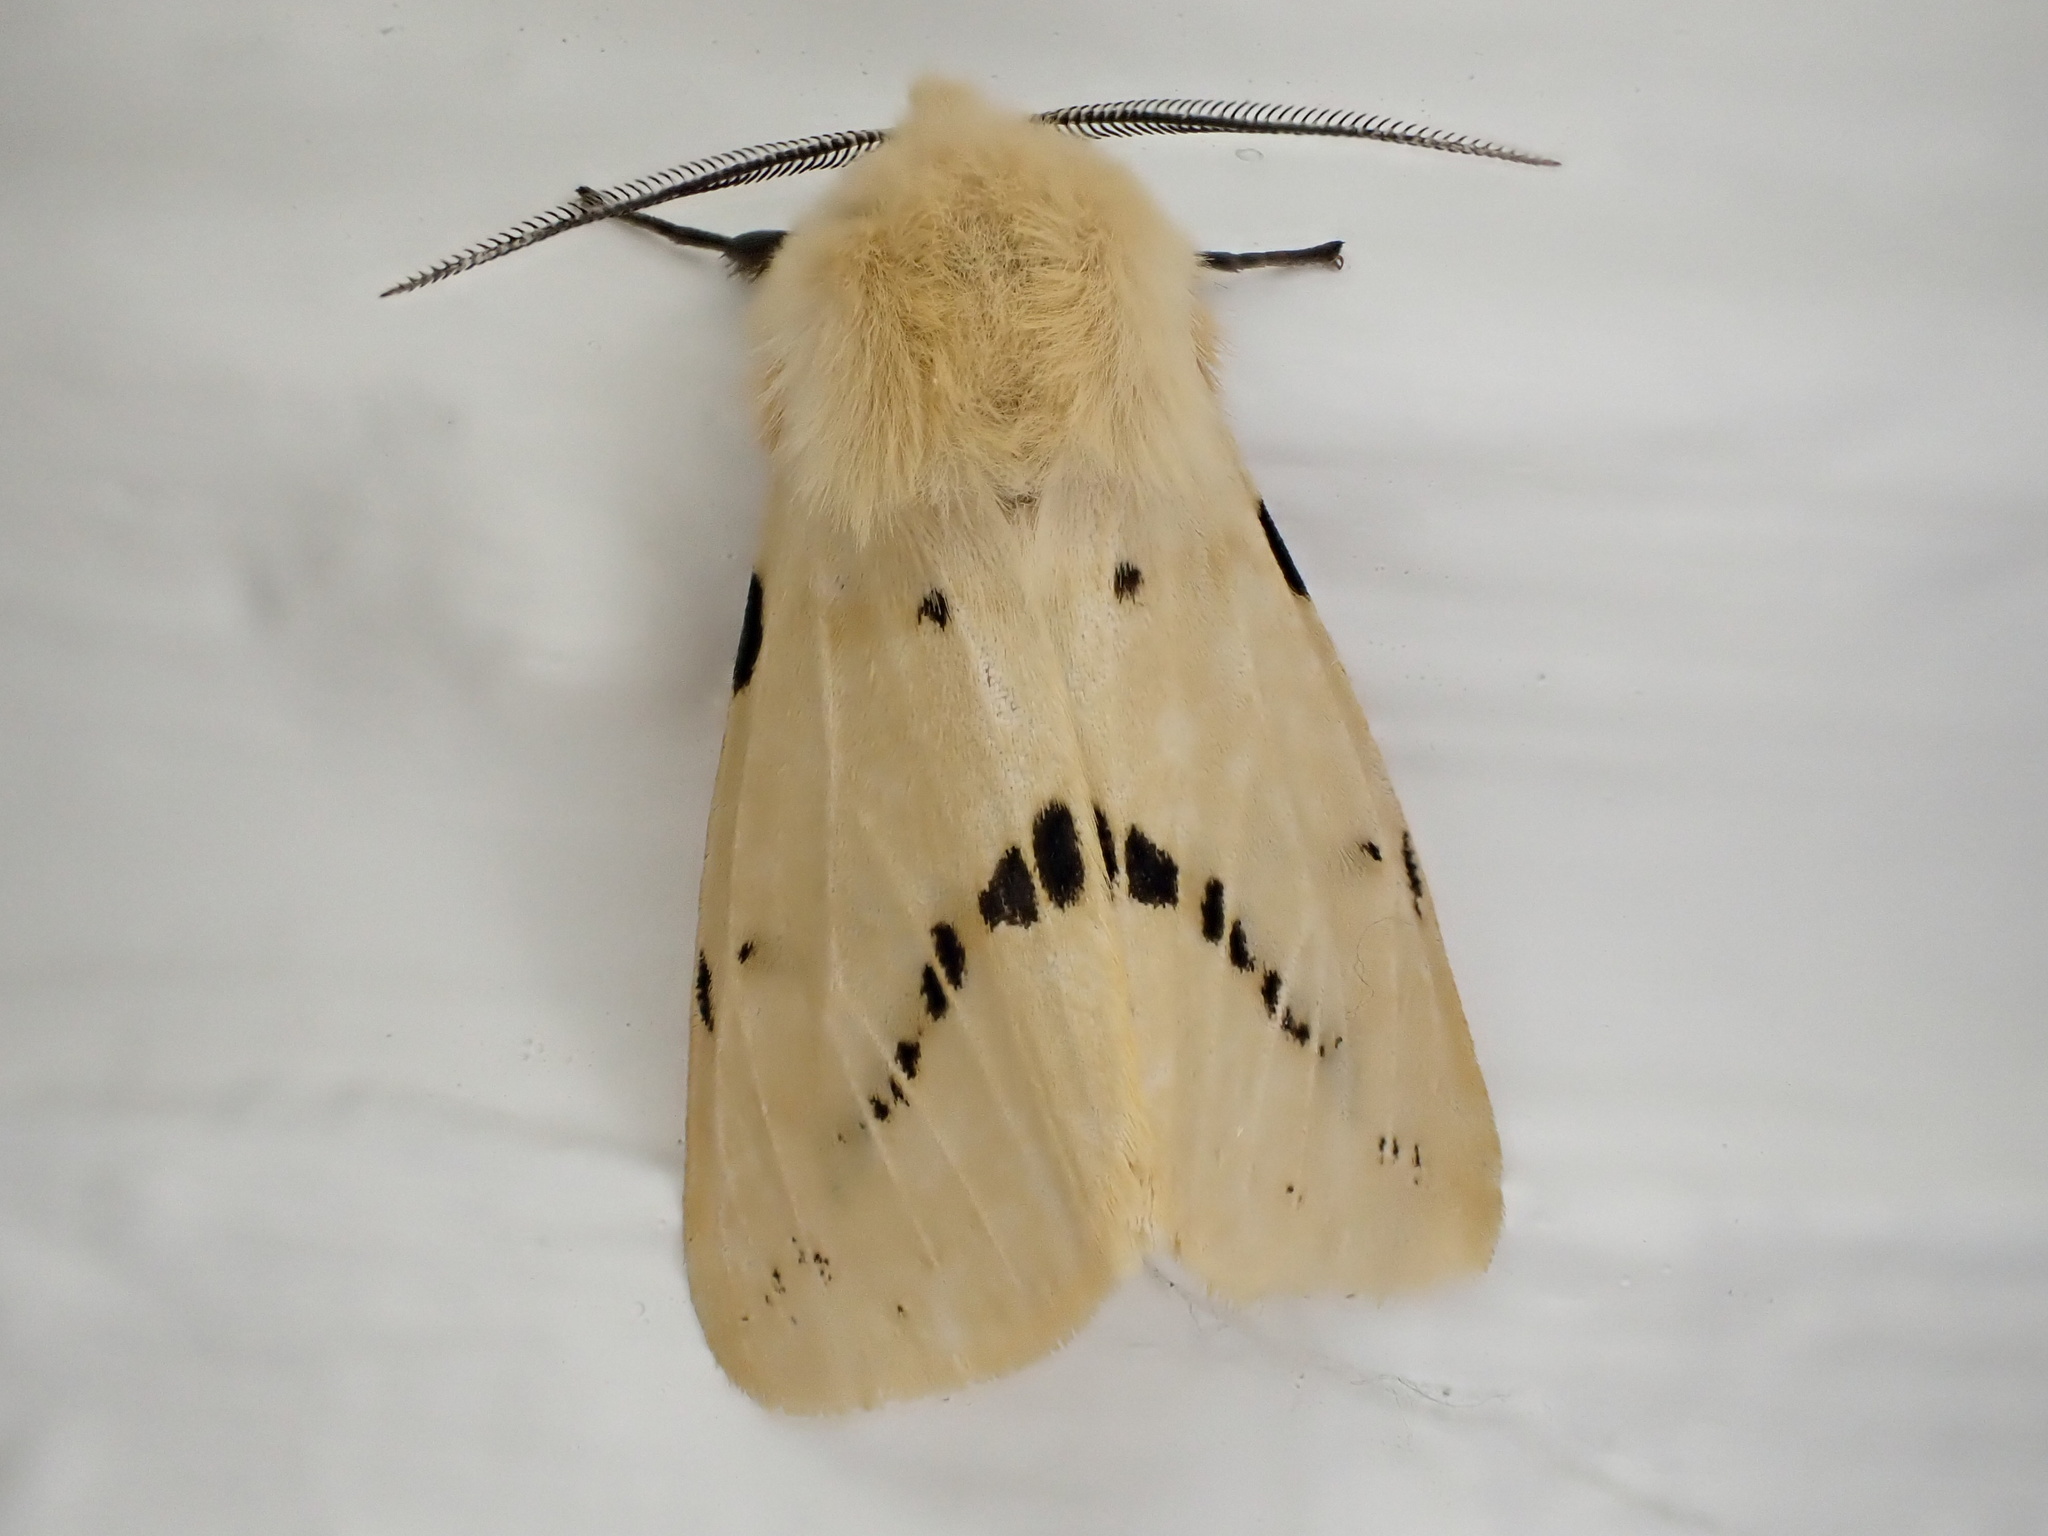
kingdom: Animalia
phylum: Arthropoda
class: Insecta
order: Lepidoptera
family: Erebidae
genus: Spilarctia
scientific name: Spilarctia lutea
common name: Buff ermine
